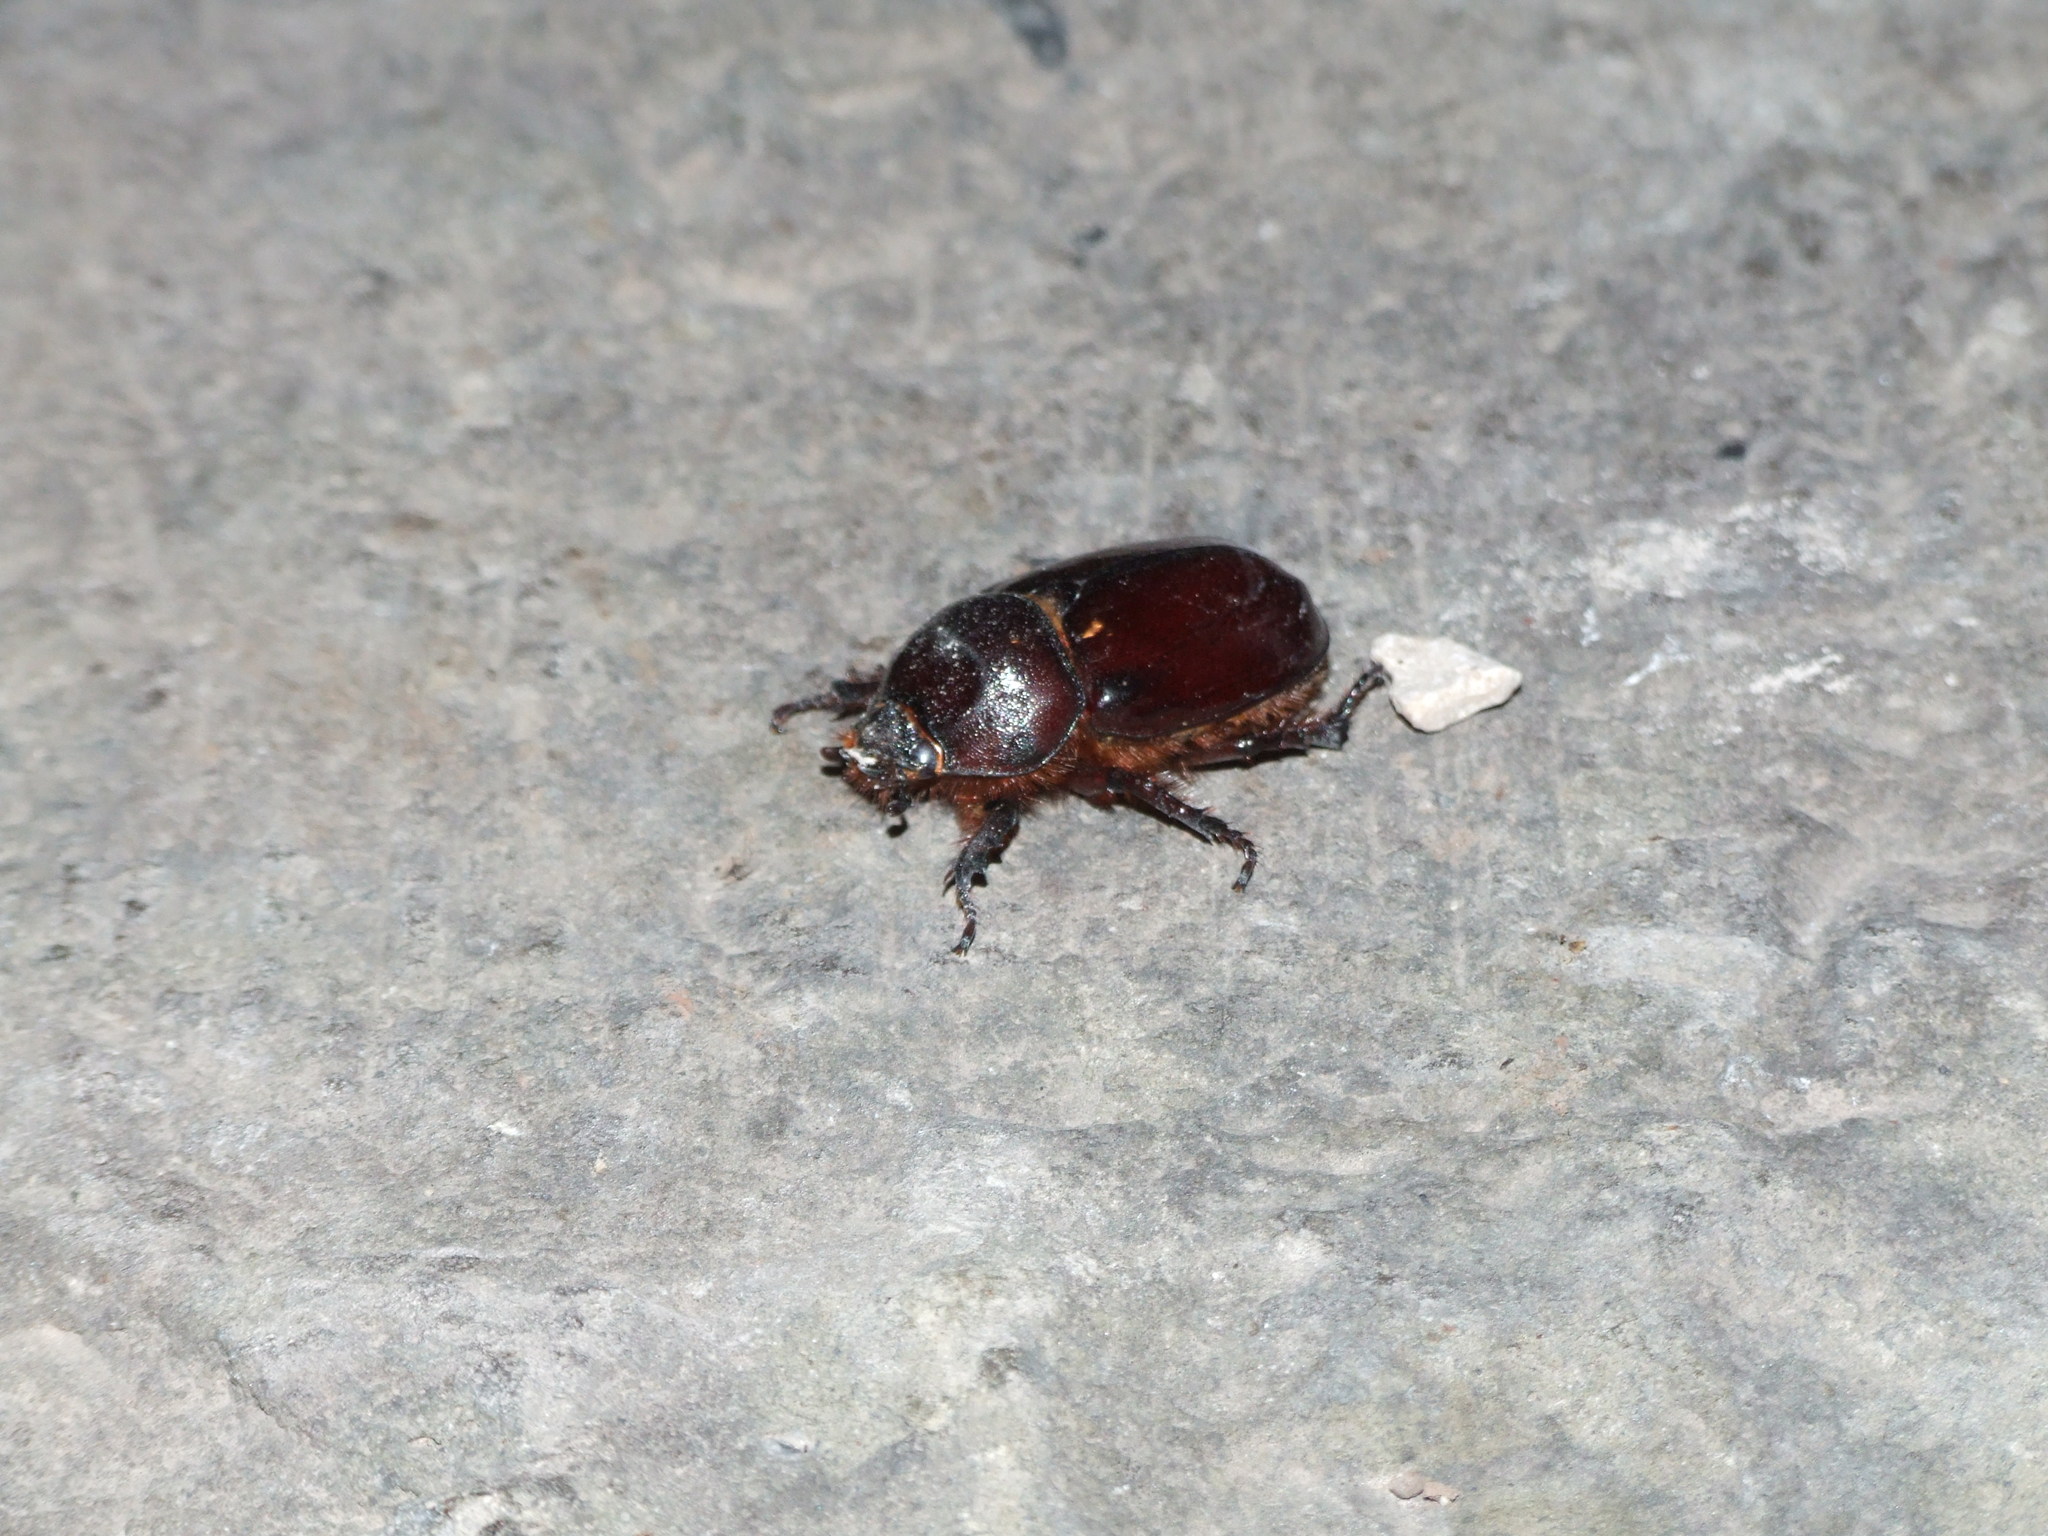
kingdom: Animalia
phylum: Arthropoda
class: Insecta
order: Coleoptera
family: Scarabaeidae
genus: Oryctes
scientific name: Oryctes nasicornis
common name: European rhinoceros beetle
